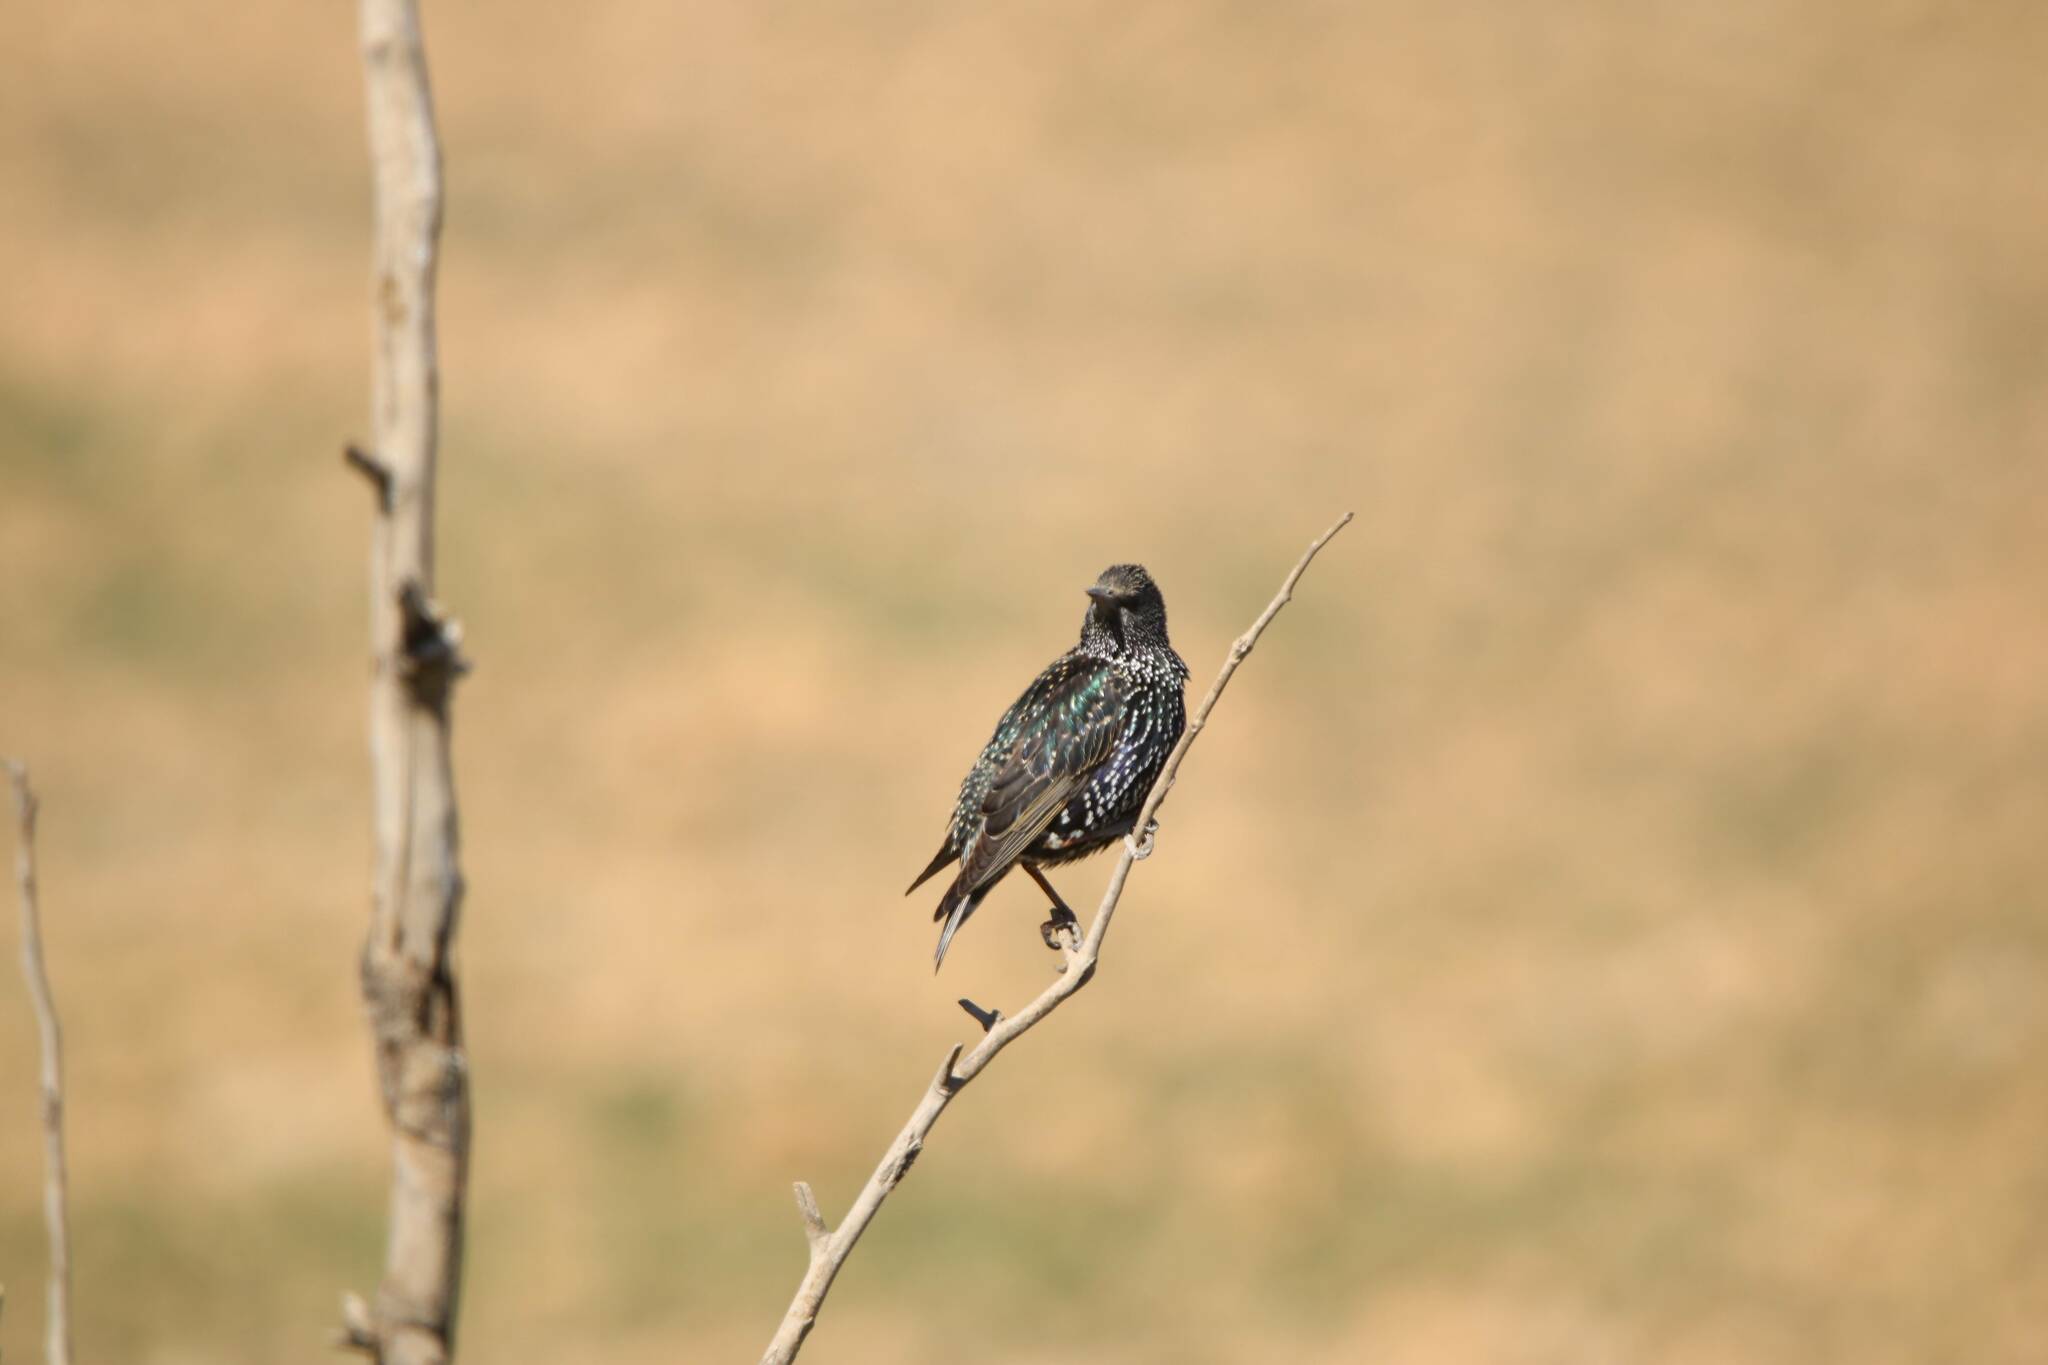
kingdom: Animalia
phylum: Chordata
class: Aves
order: Passeriformes
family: Sturnidae
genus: Sturnus
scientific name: Sturnus vulgaris
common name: Common starling
